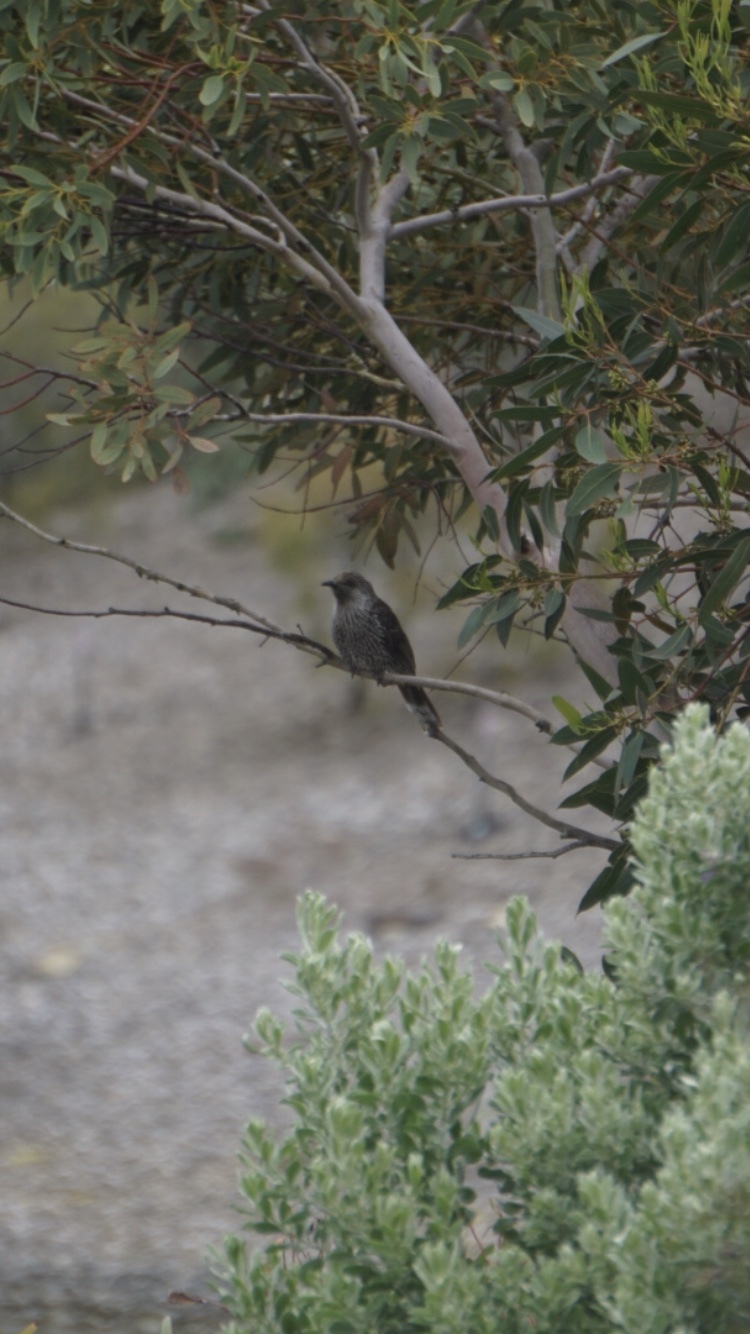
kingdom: Animalia
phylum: Chordata
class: Aves
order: Passeriformes
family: Meliphagidae
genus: Anthochaera
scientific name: Anthochaera chrysoptera
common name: Little wattlebird
